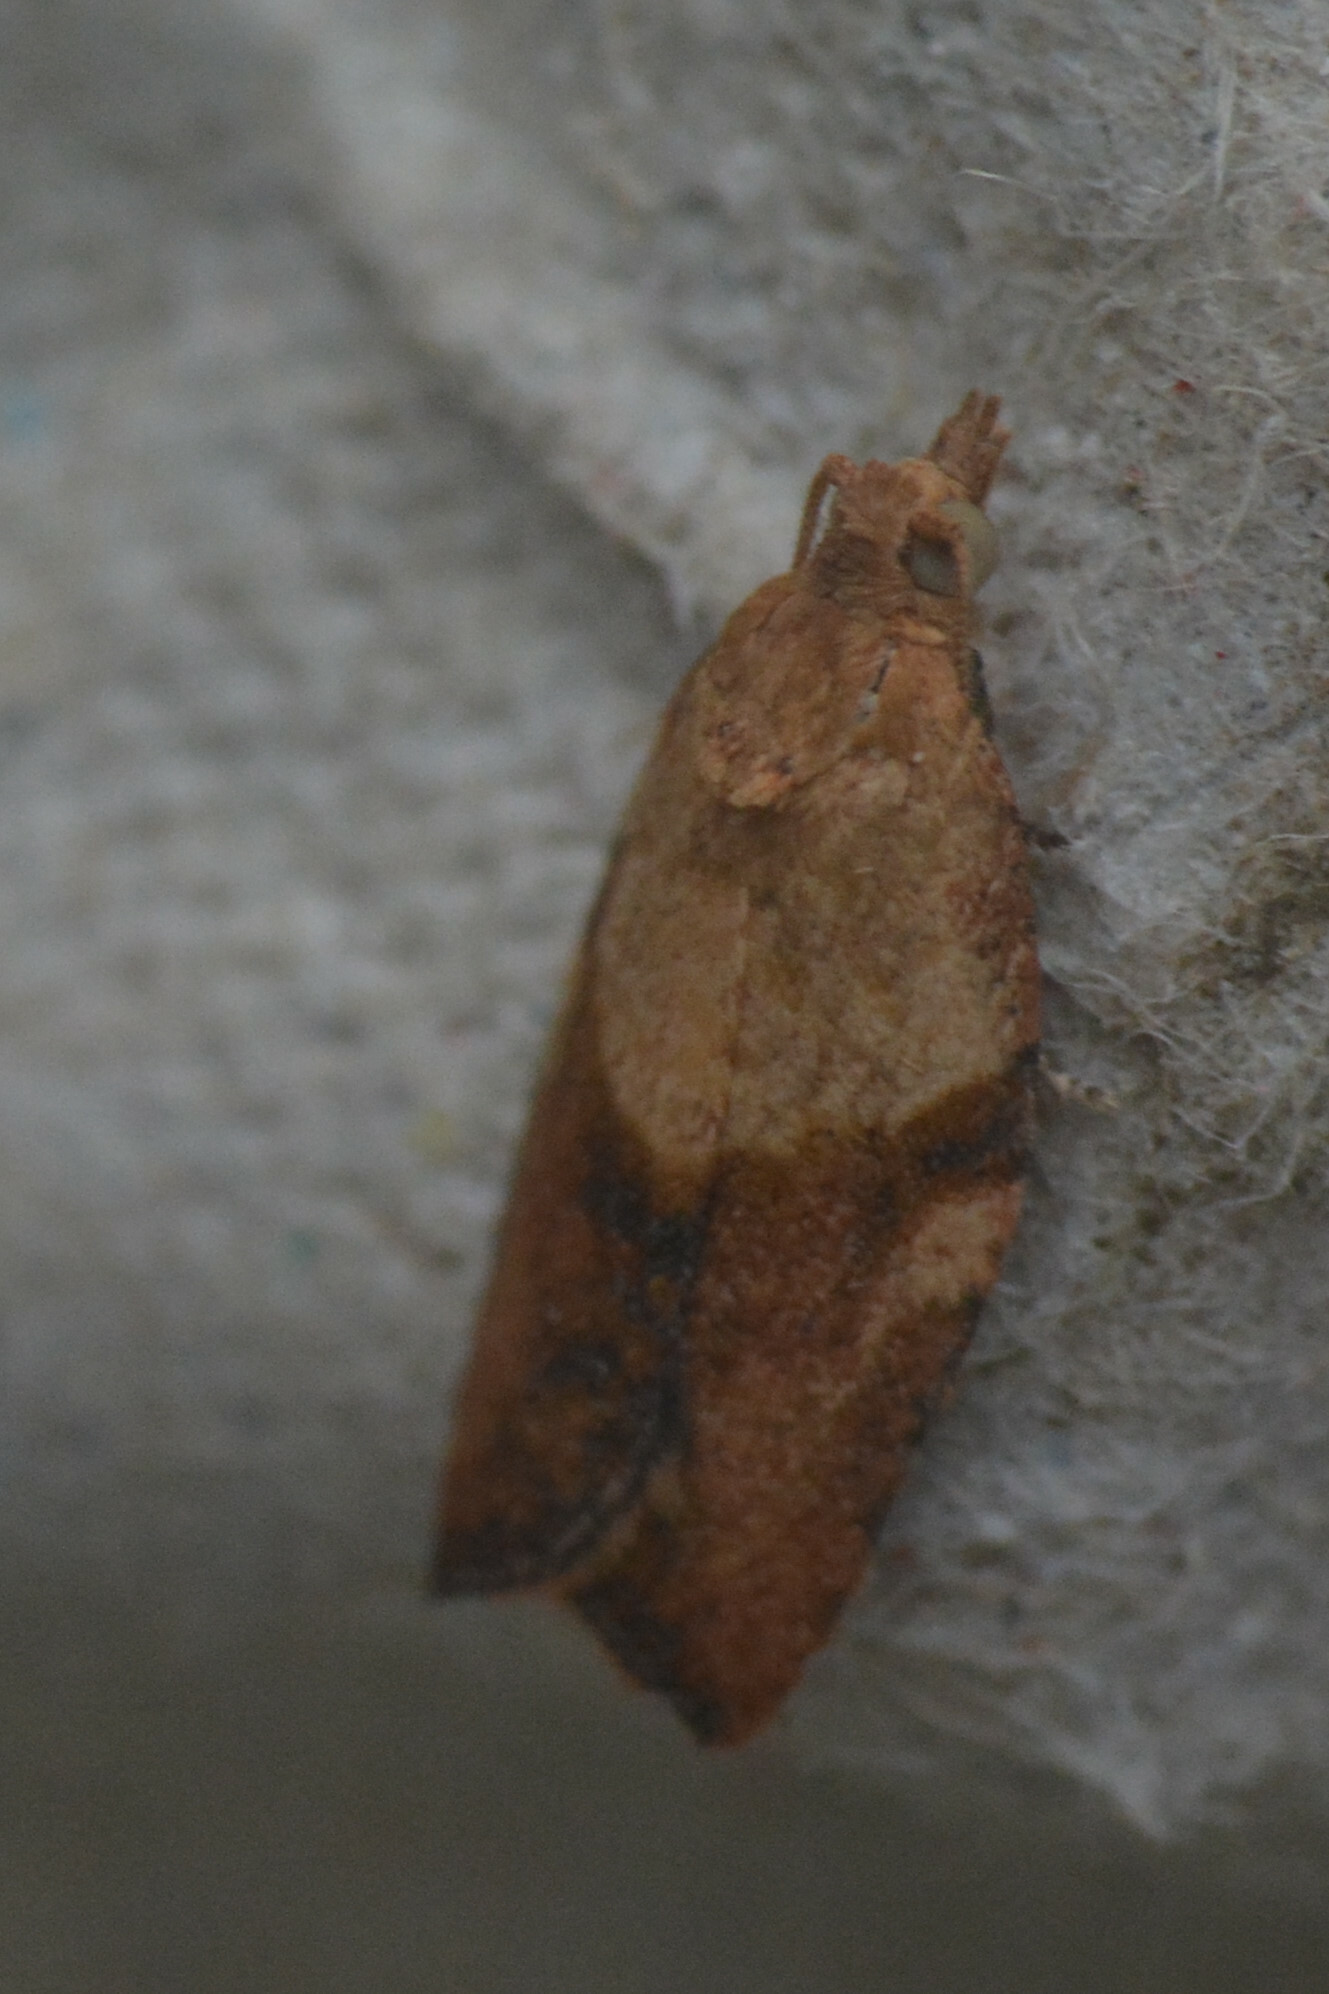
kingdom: Animalia
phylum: Arthropoda
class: Insecta
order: Lepidoptera
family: Tortricidae
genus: Epiphyas
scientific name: Epiphyas postvittana
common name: Light brown apple moth
